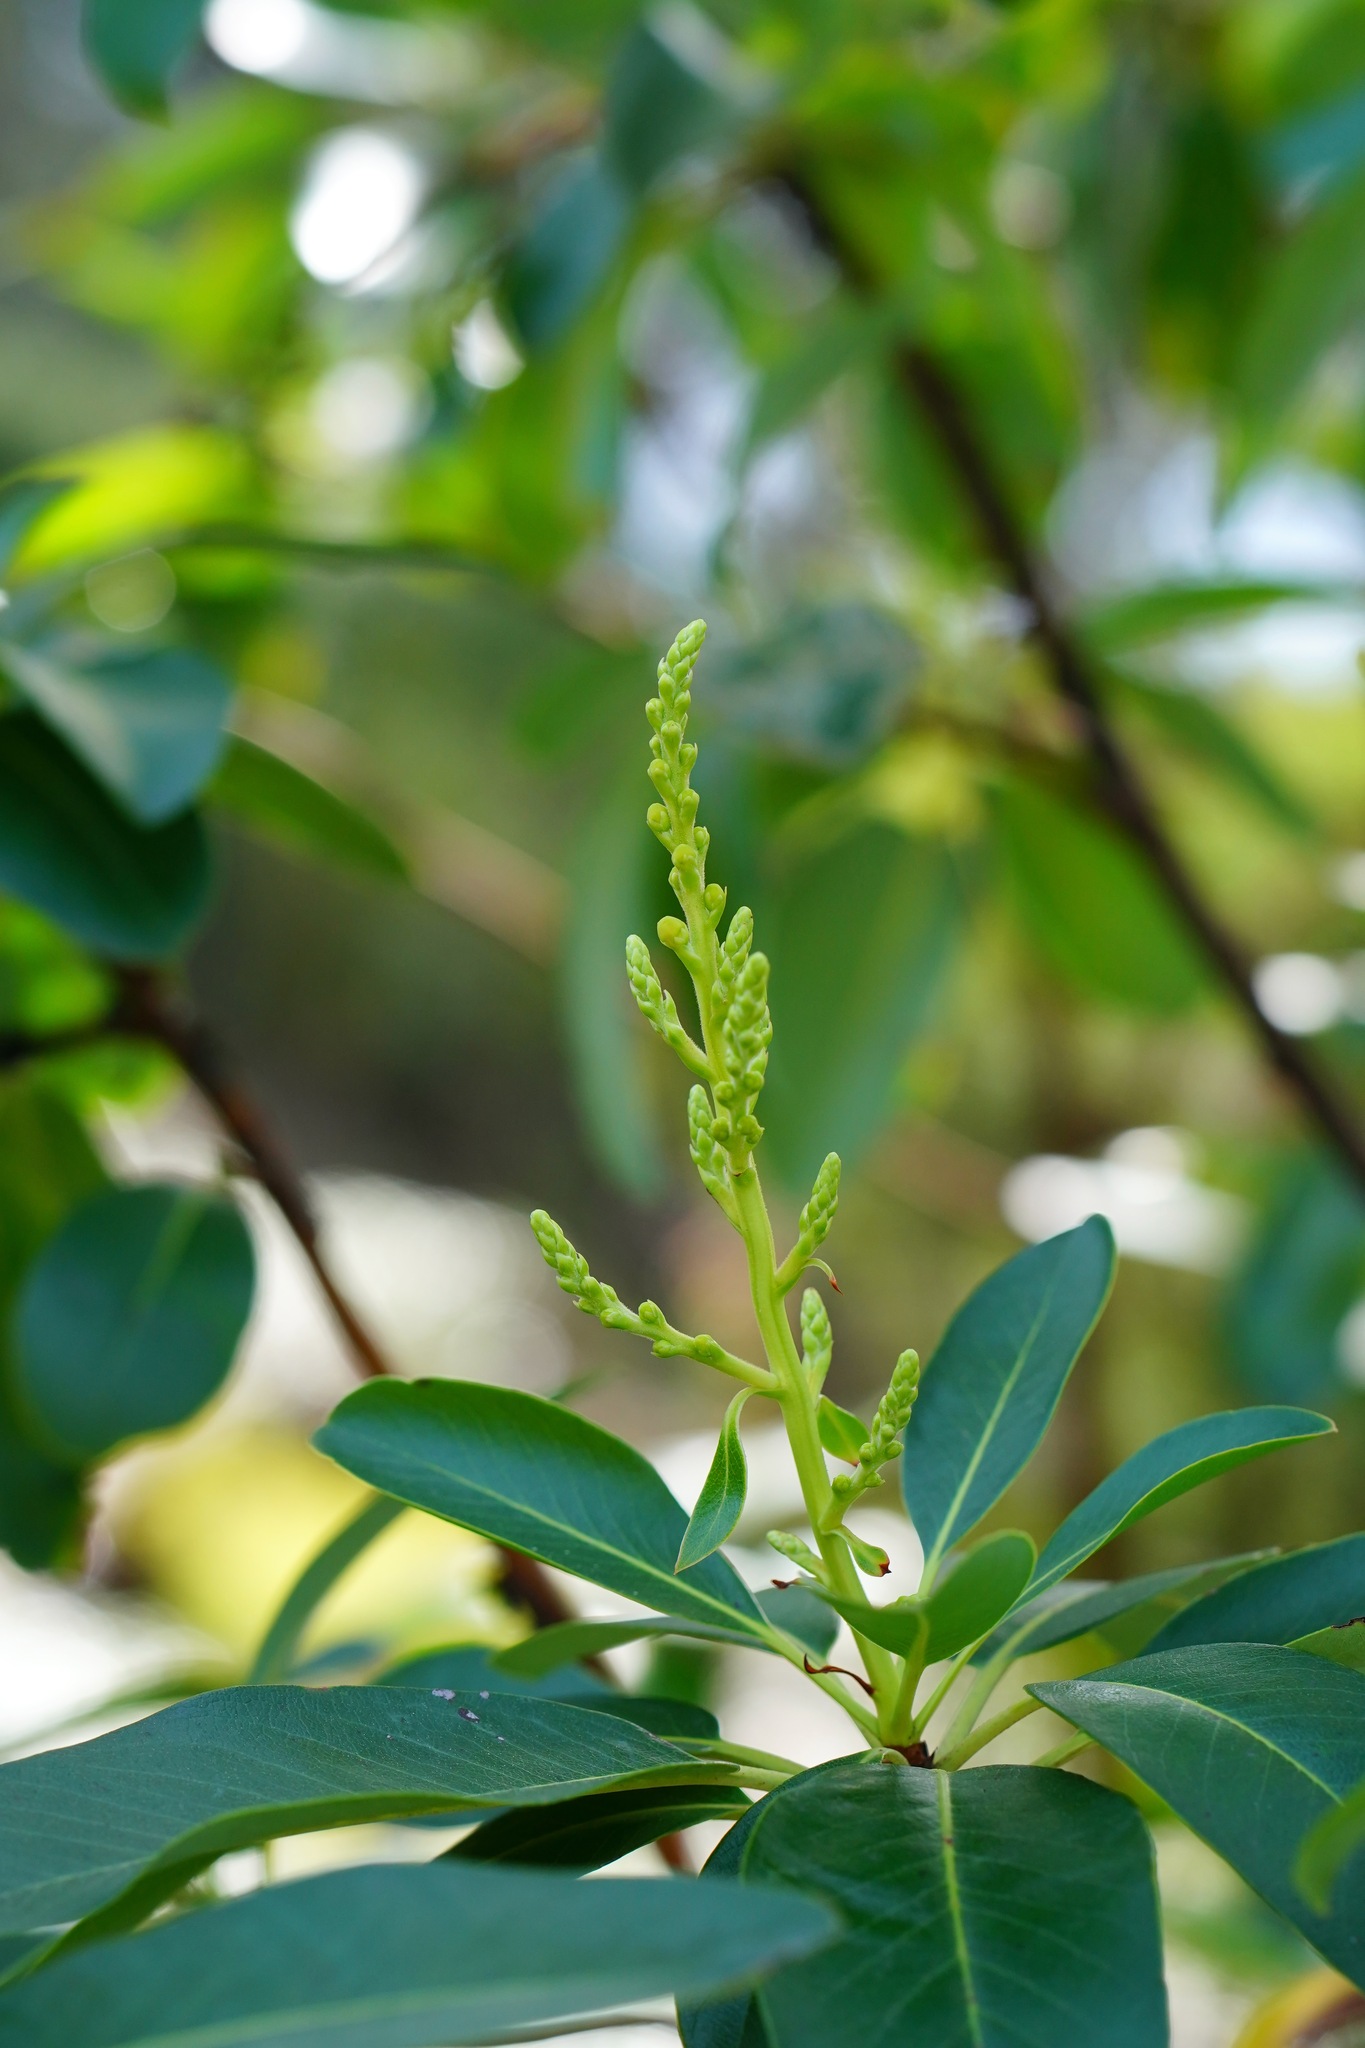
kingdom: Plantae
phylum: Tracheophyta
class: Magnoliopsida
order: Ericales
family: Ericaceae
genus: Arbutus
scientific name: Arbutus menziesii
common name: Pacific madrone
